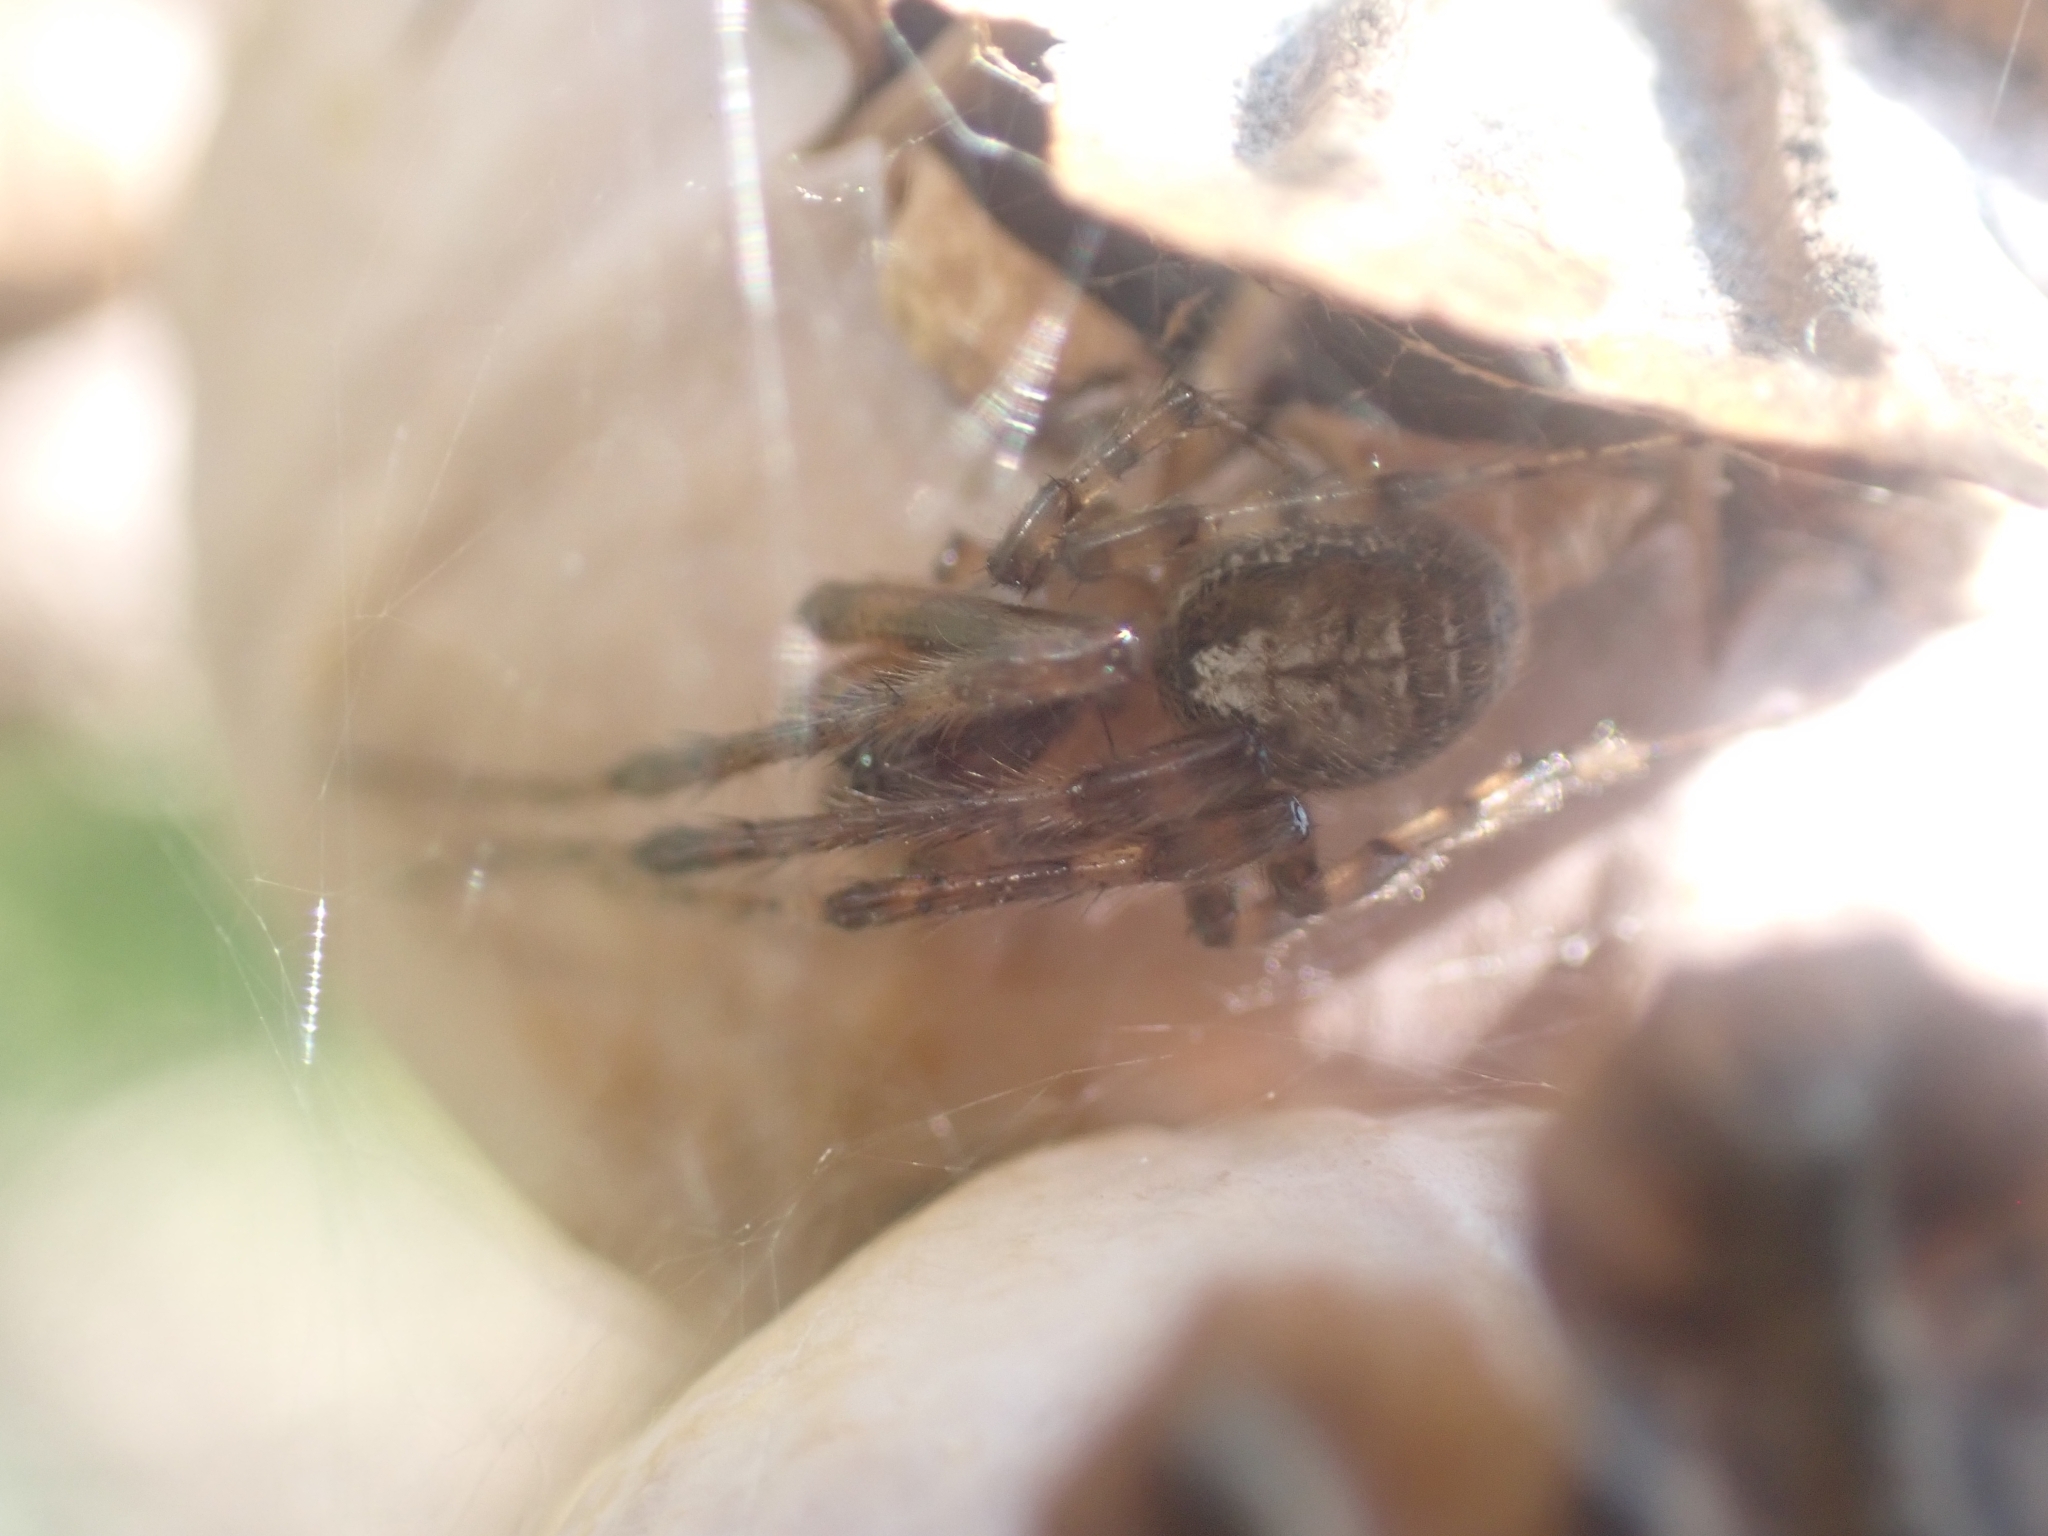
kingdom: Animalia
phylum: Arthropoda
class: Arachnida
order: Araneae
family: Araneidae
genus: Zygiella
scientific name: Zygiella x-notata
